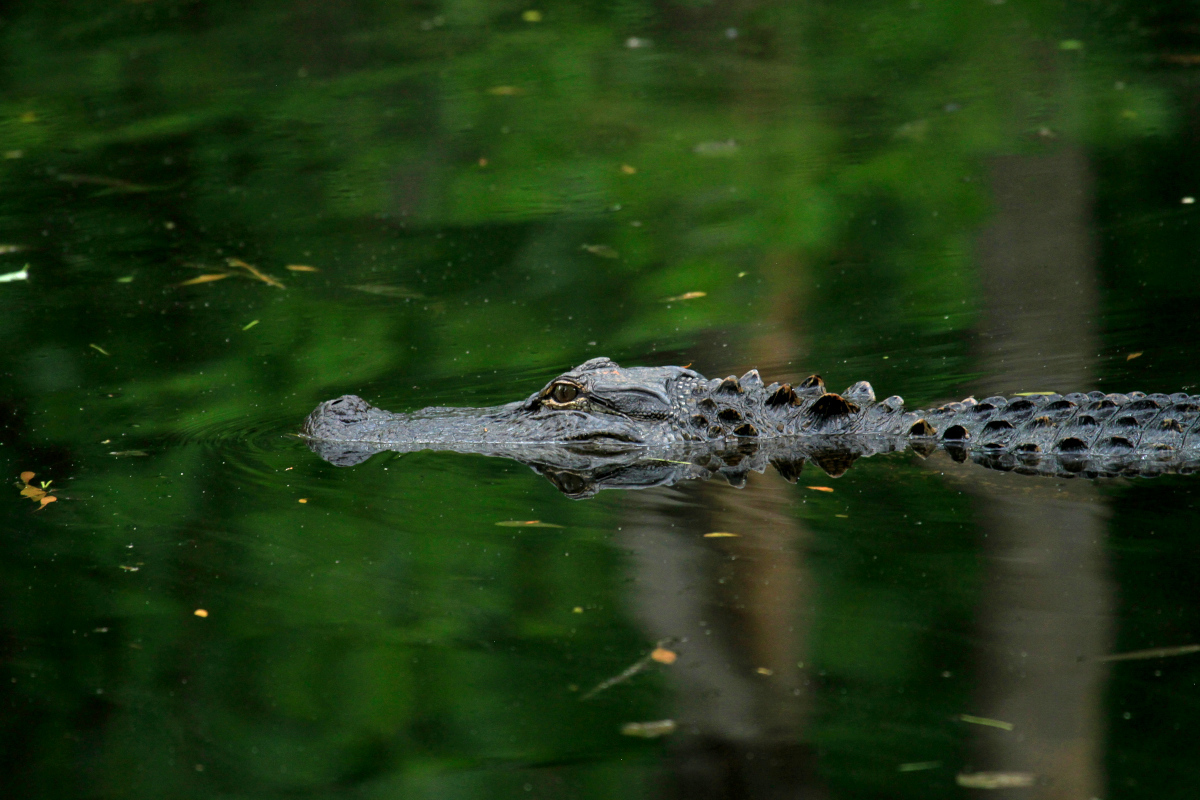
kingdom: Animalia
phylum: Chordata
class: Crocodylia
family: Alligatoridae
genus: Alligator
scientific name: Alligator mississippiensis
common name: American alligator
